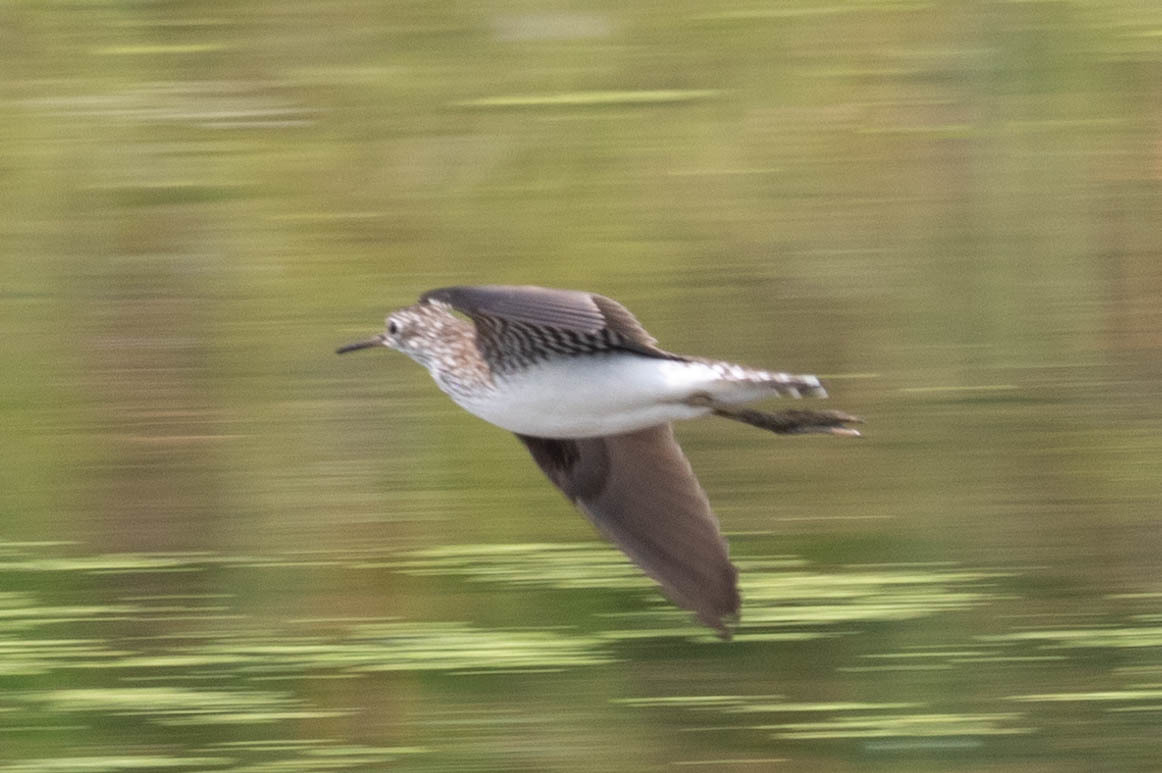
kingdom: Animalia
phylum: Chordata
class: Aves
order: Charadriiformes
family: Scolopacidae
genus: Tringa
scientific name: Tringa solitaria
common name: Solitary sandpiper
